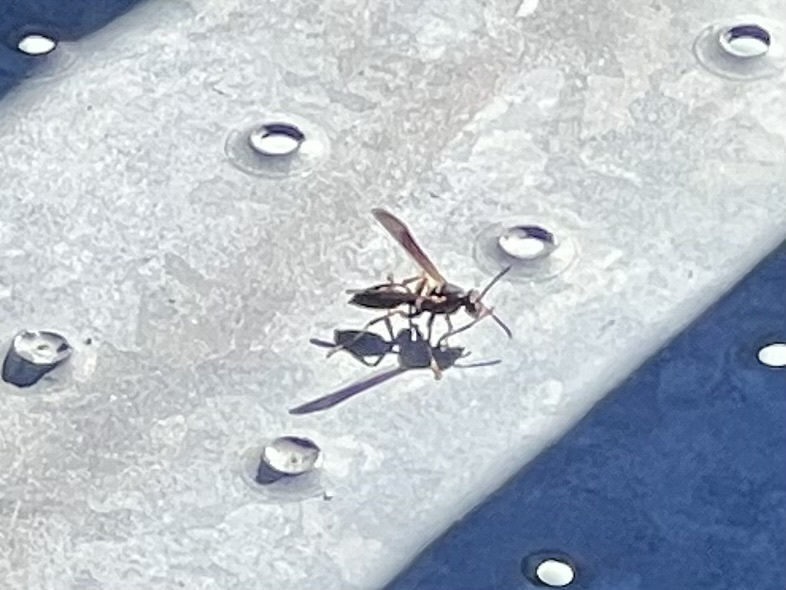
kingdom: Animalia
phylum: Arthropoda
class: Insecta
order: Hymenoptera
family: Vespidae
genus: Fuscopolistes
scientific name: Fuscopolistes
